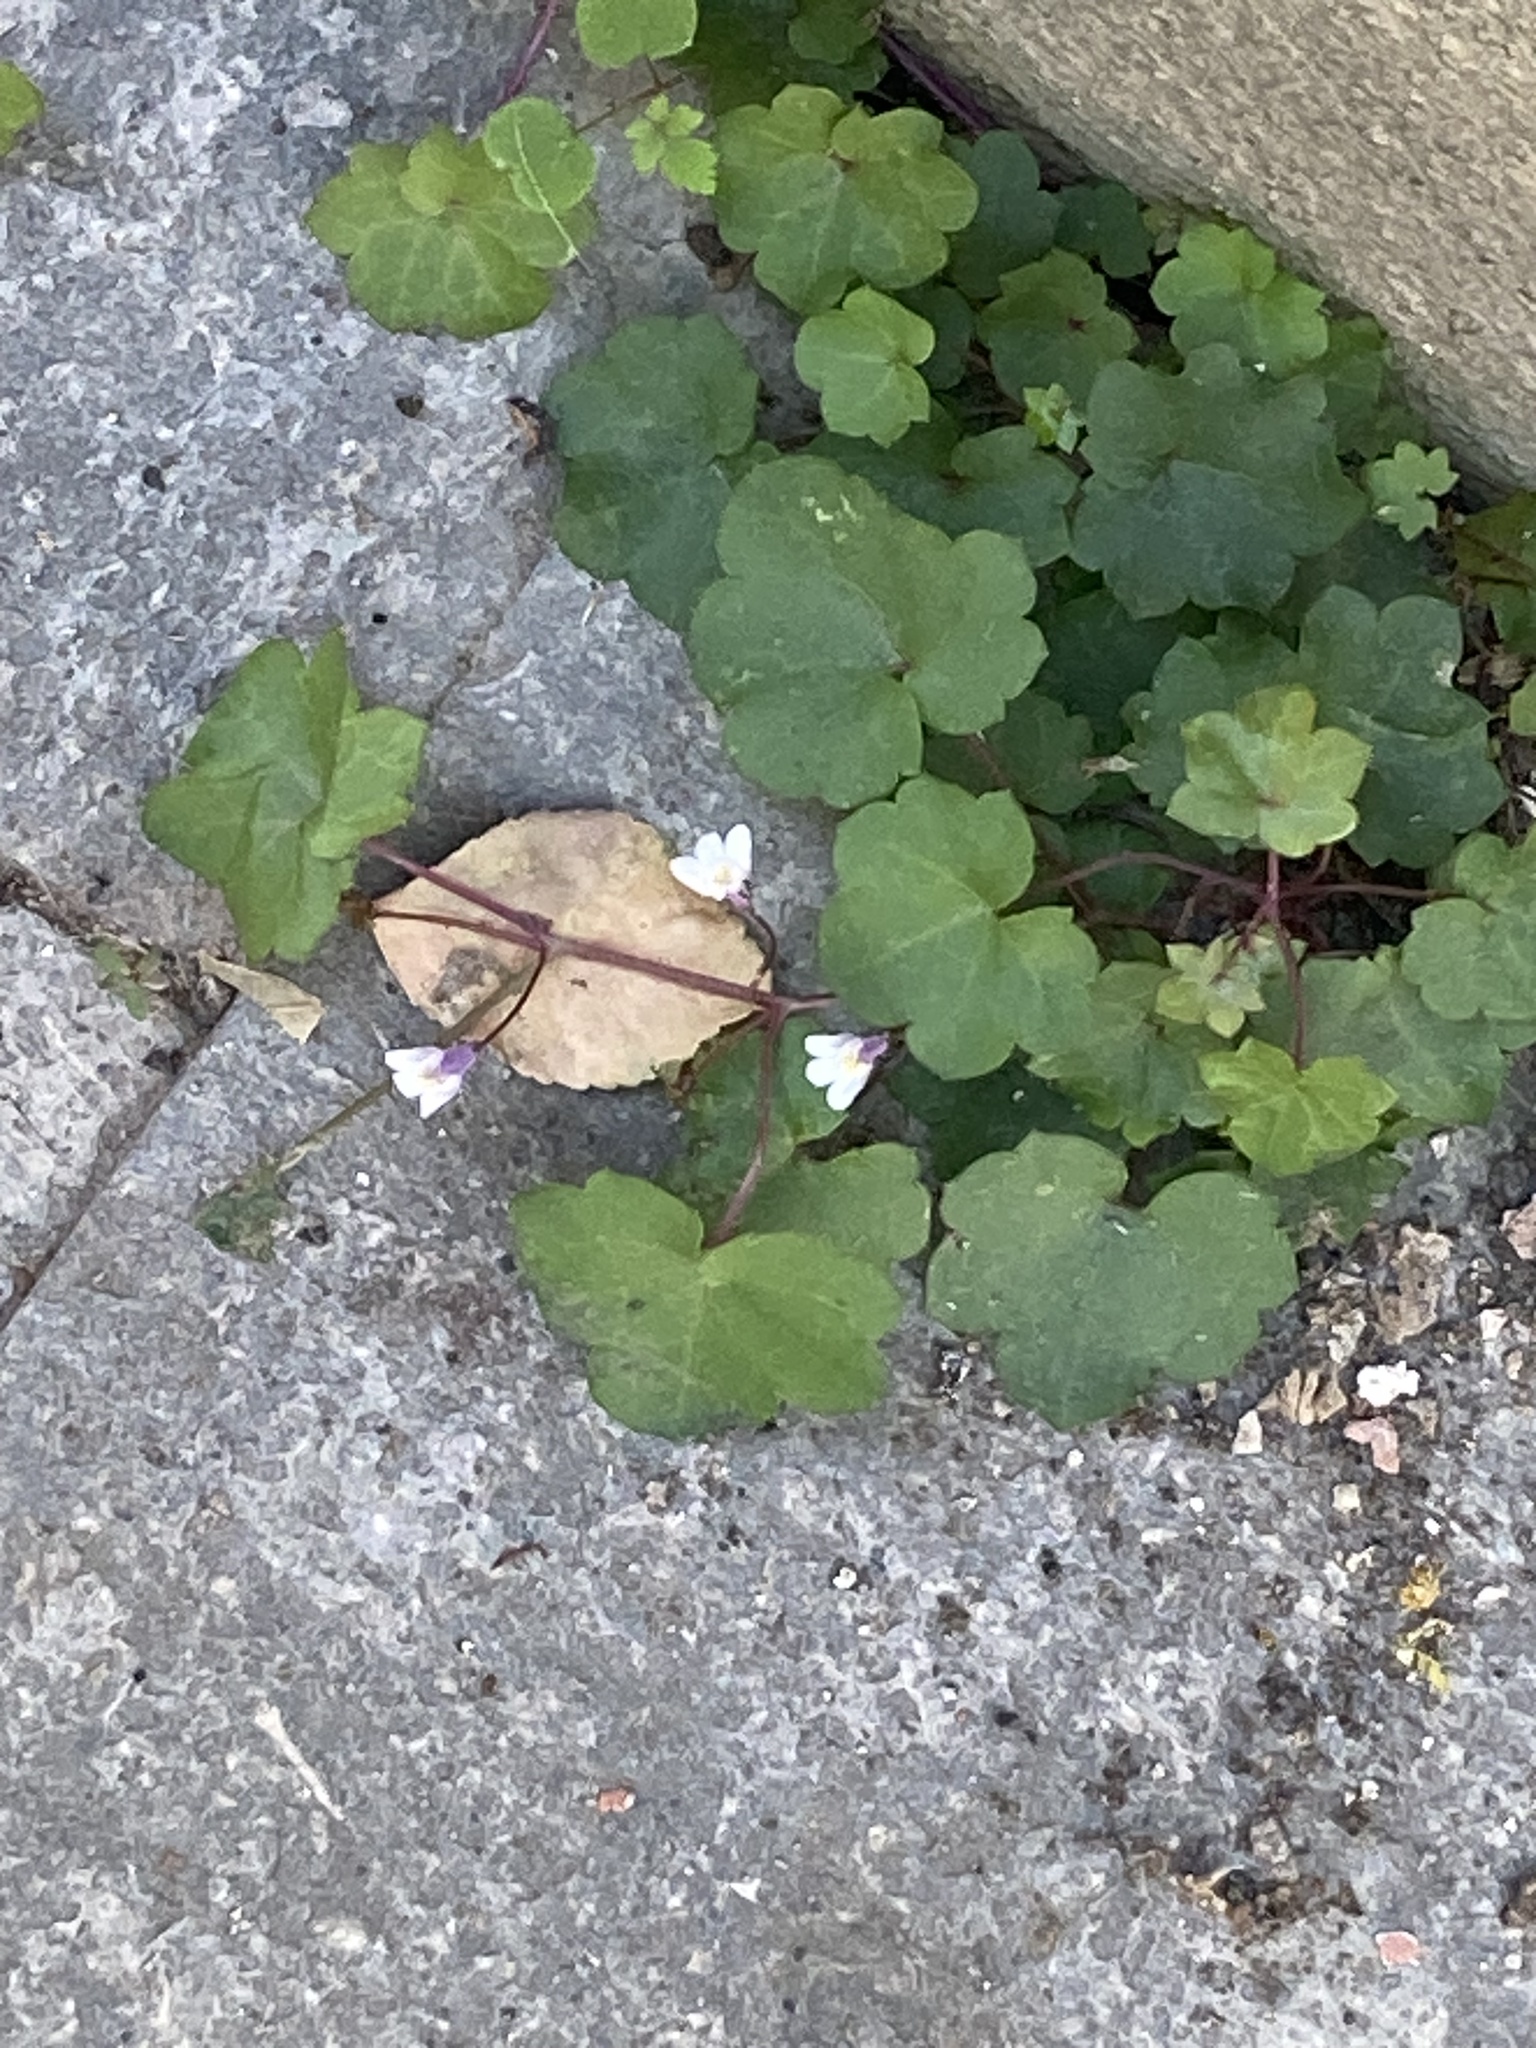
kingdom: Plantae
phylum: Tracheophyta
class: Magnoliopsida
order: Lamiales
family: Plantaginaceae
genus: Cymbalaria
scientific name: Cymbalaria muralis
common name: Ivy-leaved toadflax
